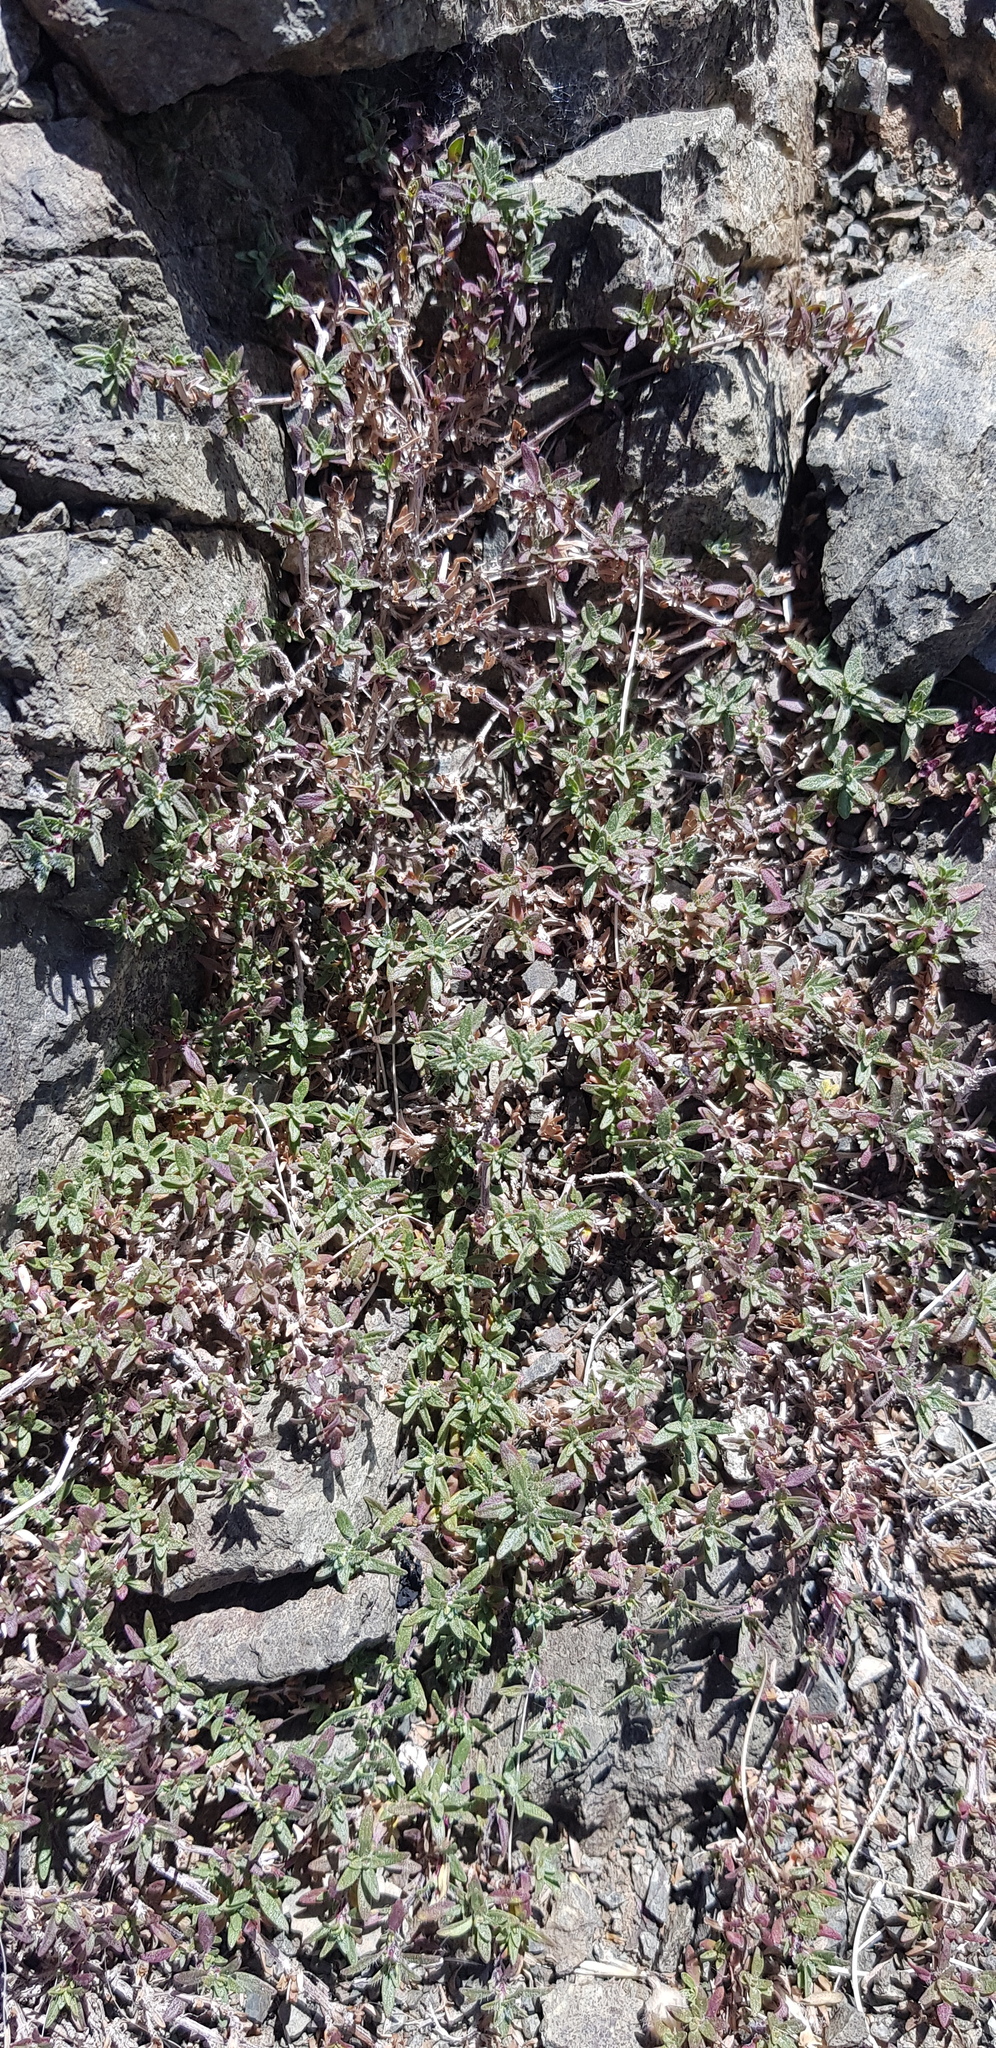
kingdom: Plantae
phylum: Tracheophyta
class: Magnoliopsida
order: Lamiales
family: Lamiaceae
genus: Thymus
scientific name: Thymus gobicus
